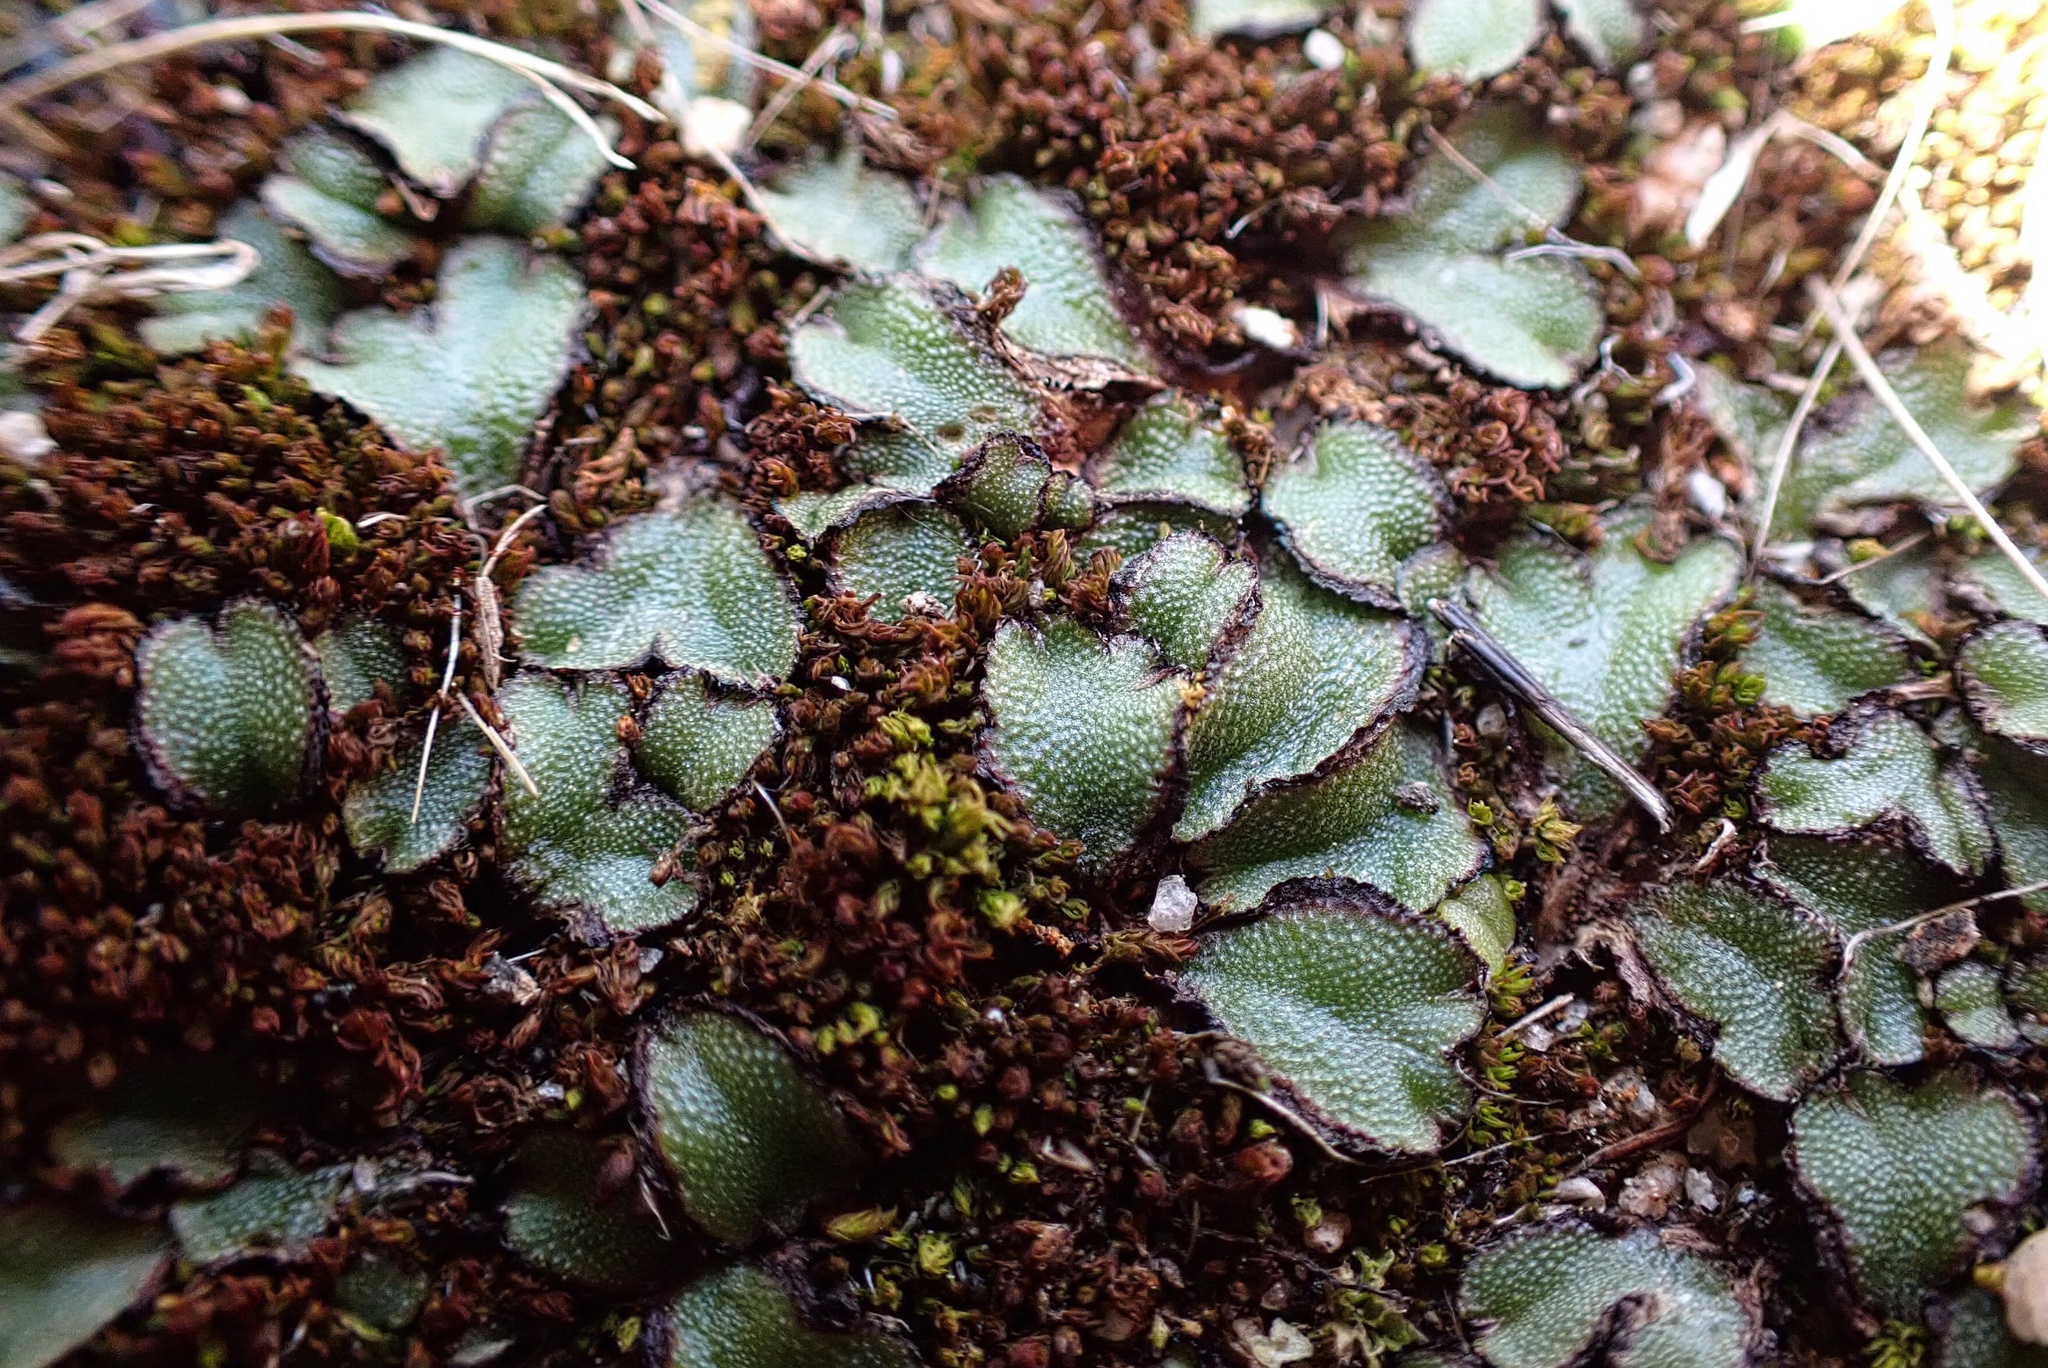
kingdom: Plantae
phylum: Marchantiophyta
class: Marchantiopsida
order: Marchantiales
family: Aytoniaceae
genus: Asterella
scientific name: Asterella californica
